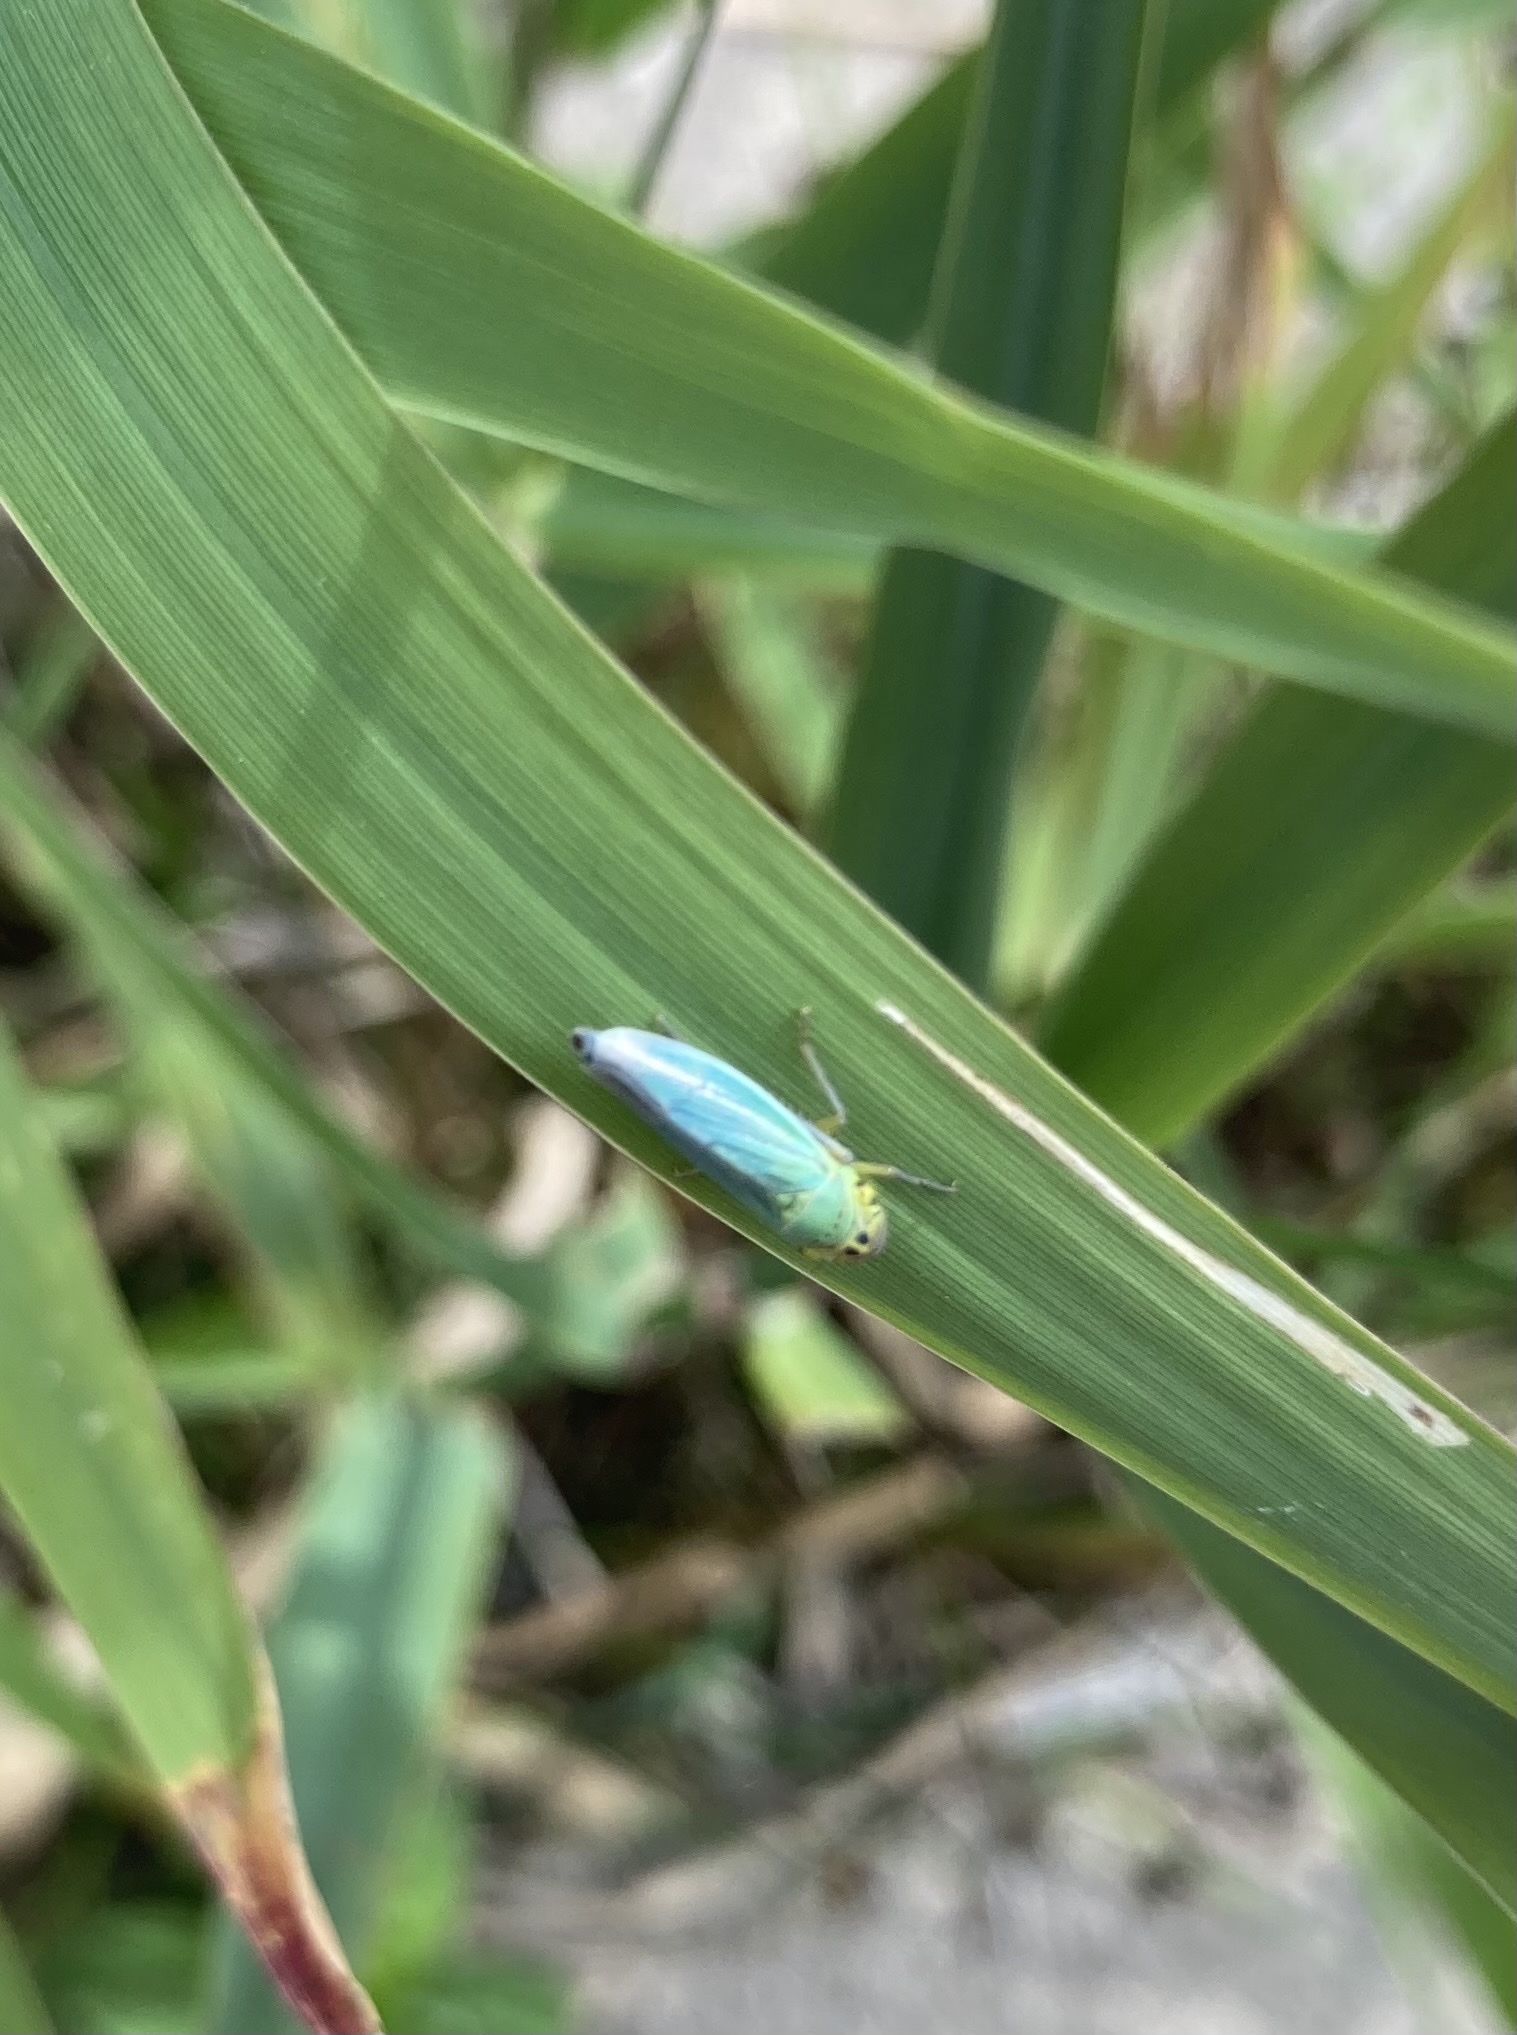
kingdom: Animalia
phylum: Arthropoda
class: Insecta
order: Hemiptera
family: Cicadellidae
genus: Cicadella
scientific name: Cicadella viridis
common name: Leafhopper
